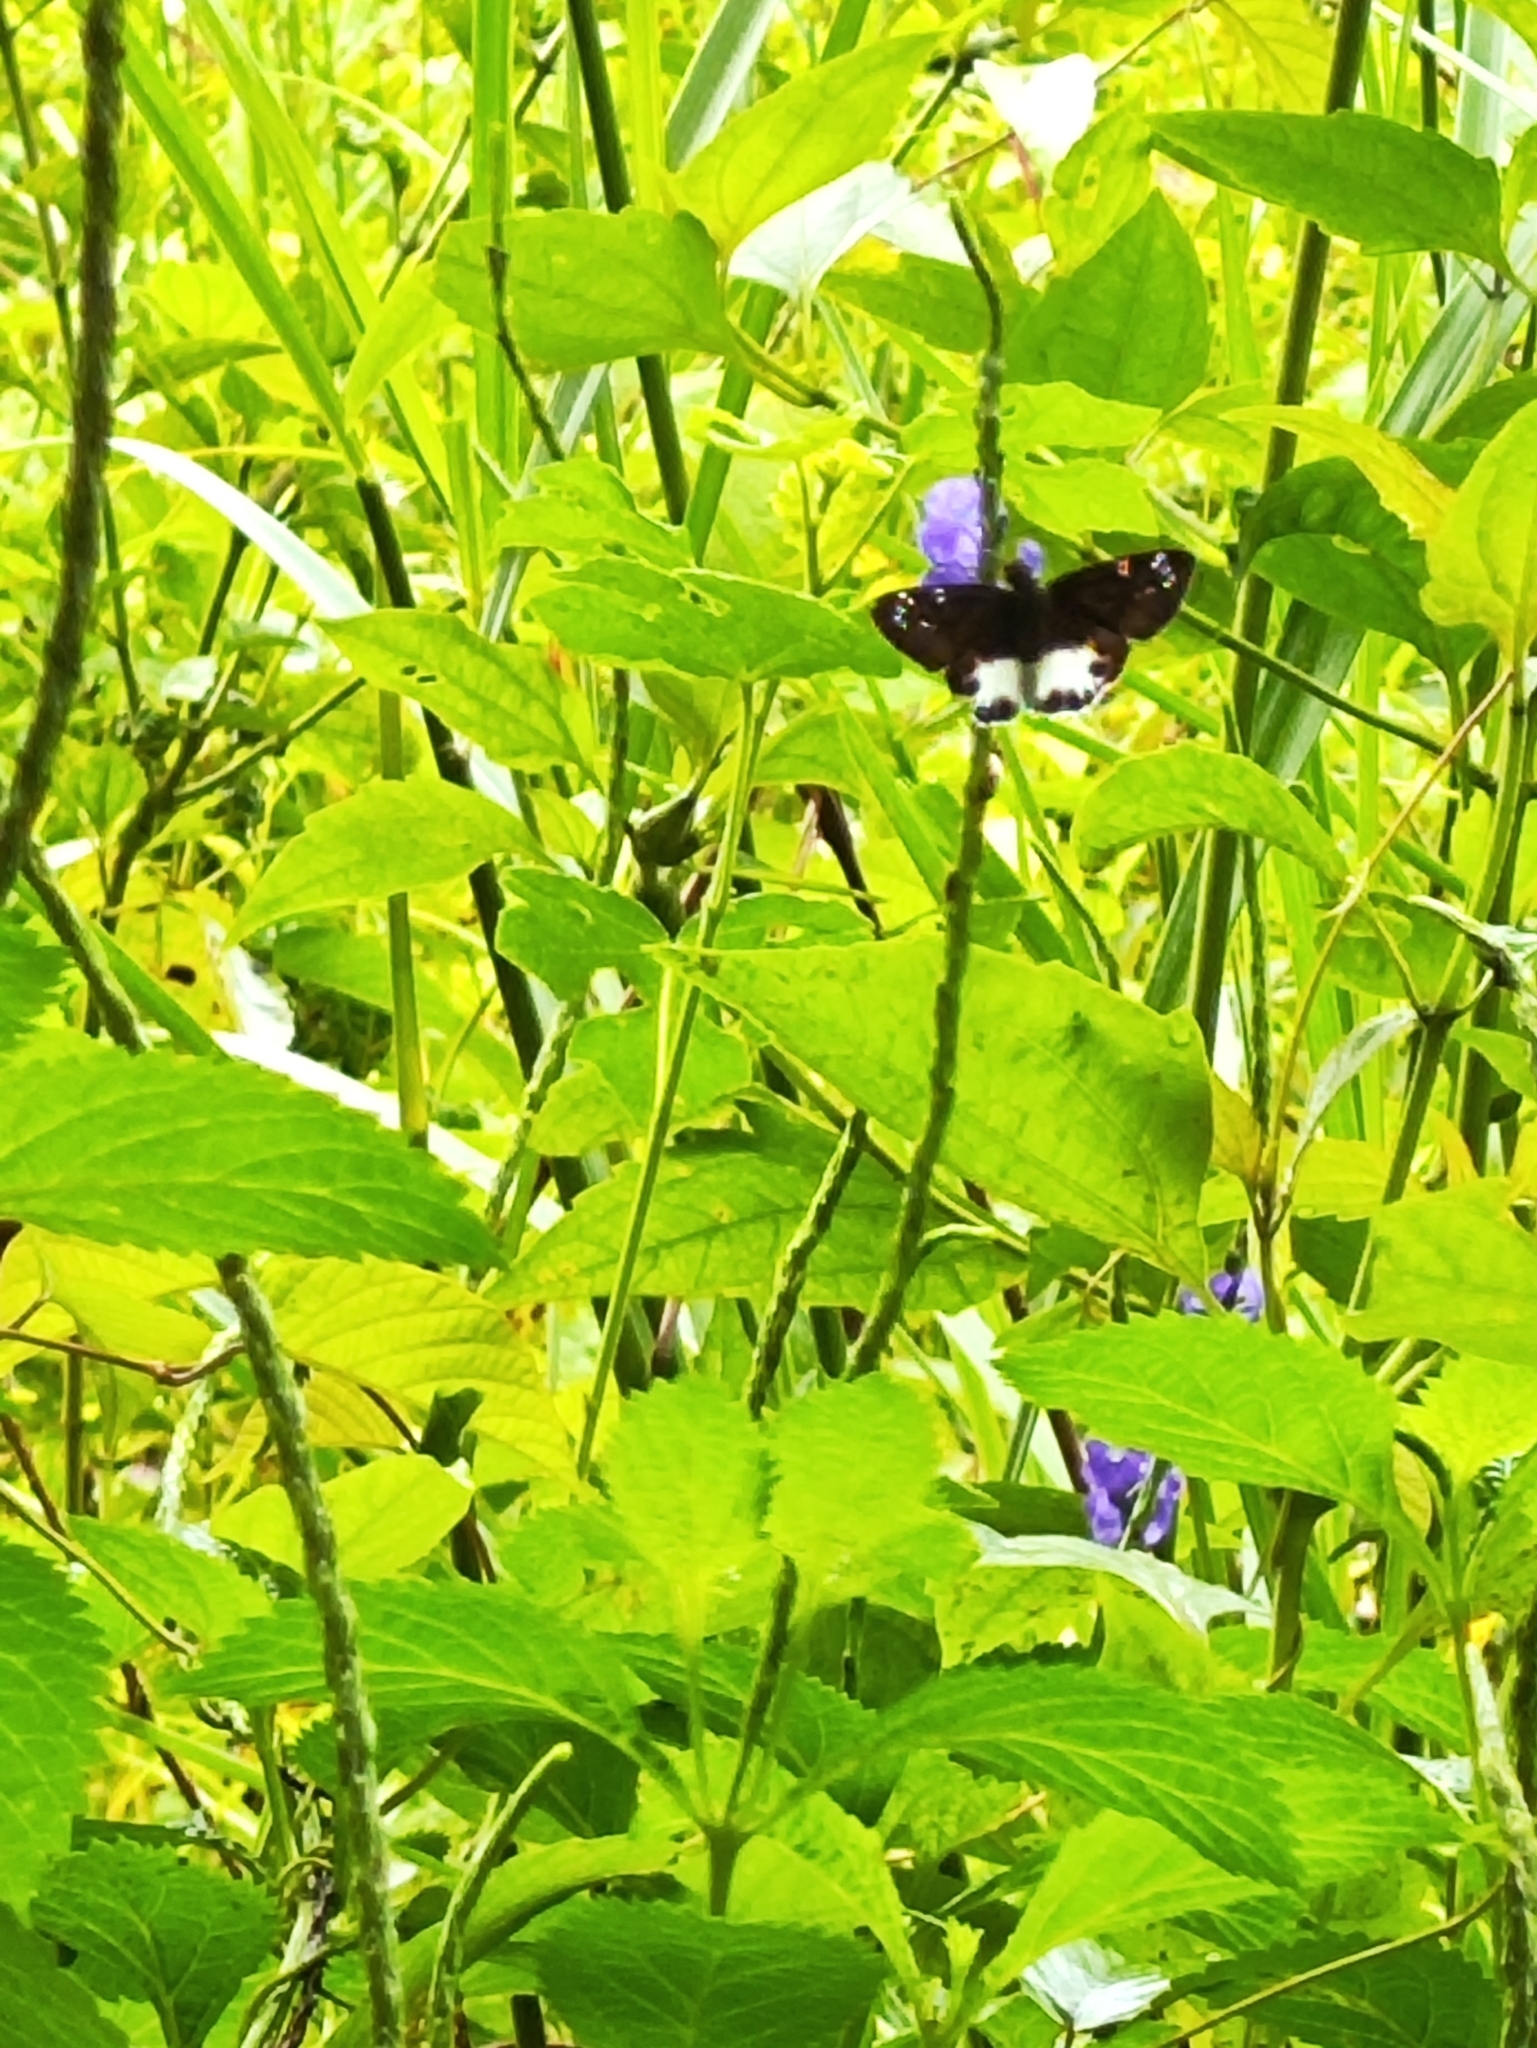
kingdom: Animalia
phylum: Arthropoda
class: Insecta
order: Lepidoptera
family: Hesperiidae
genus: Tagiades
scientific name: Tagiades litigiosa
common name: Water snow flat
